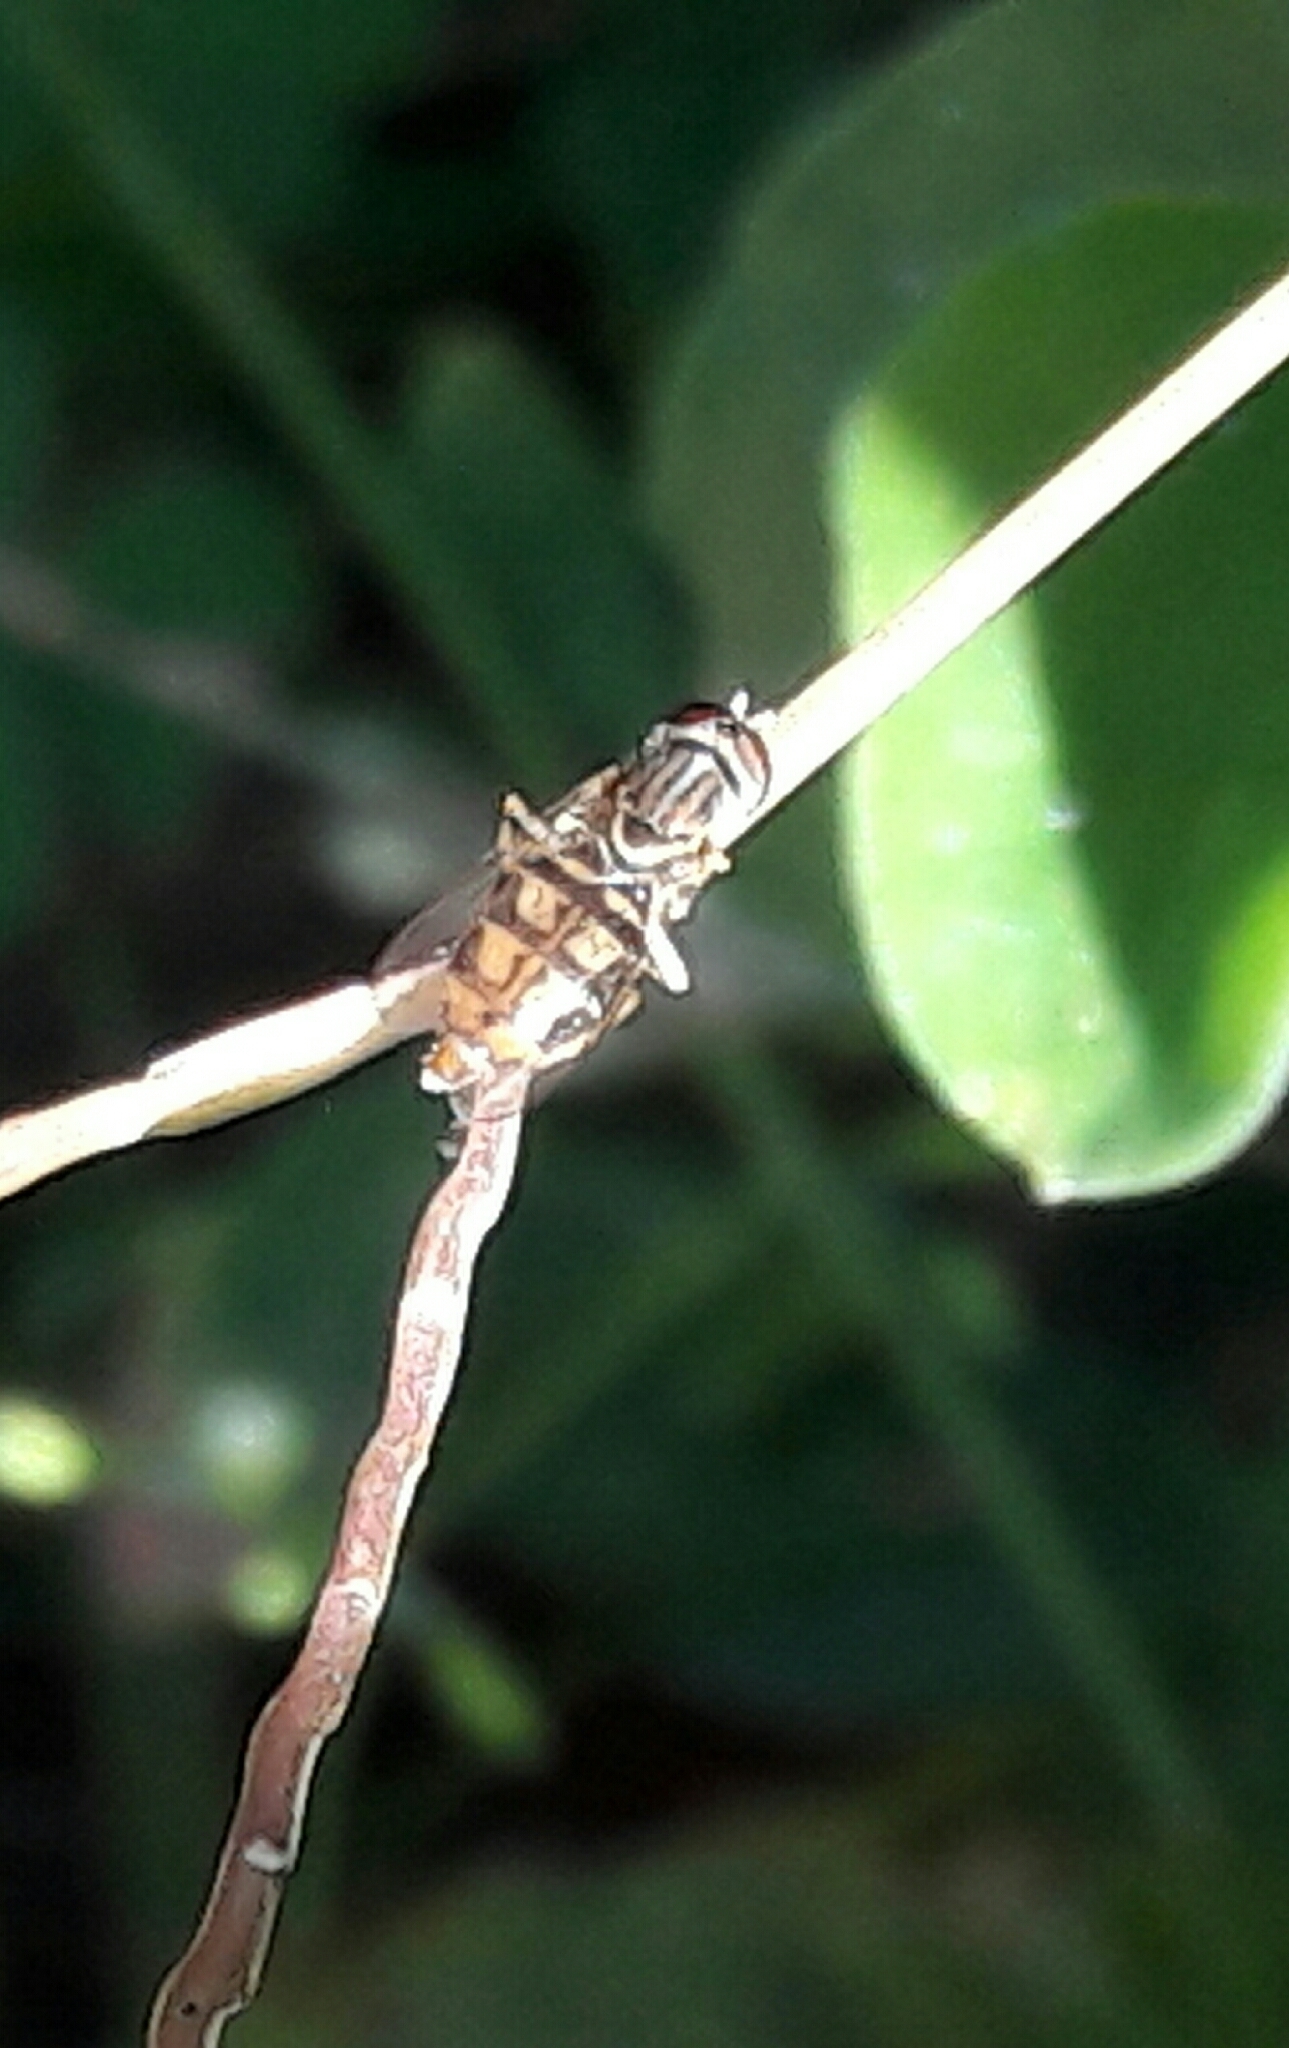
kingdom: Animalia
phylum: Arthropoda
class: Insecta
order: Diptera
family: Syrphidae
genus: Toxomerus
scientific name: Toxomerus
